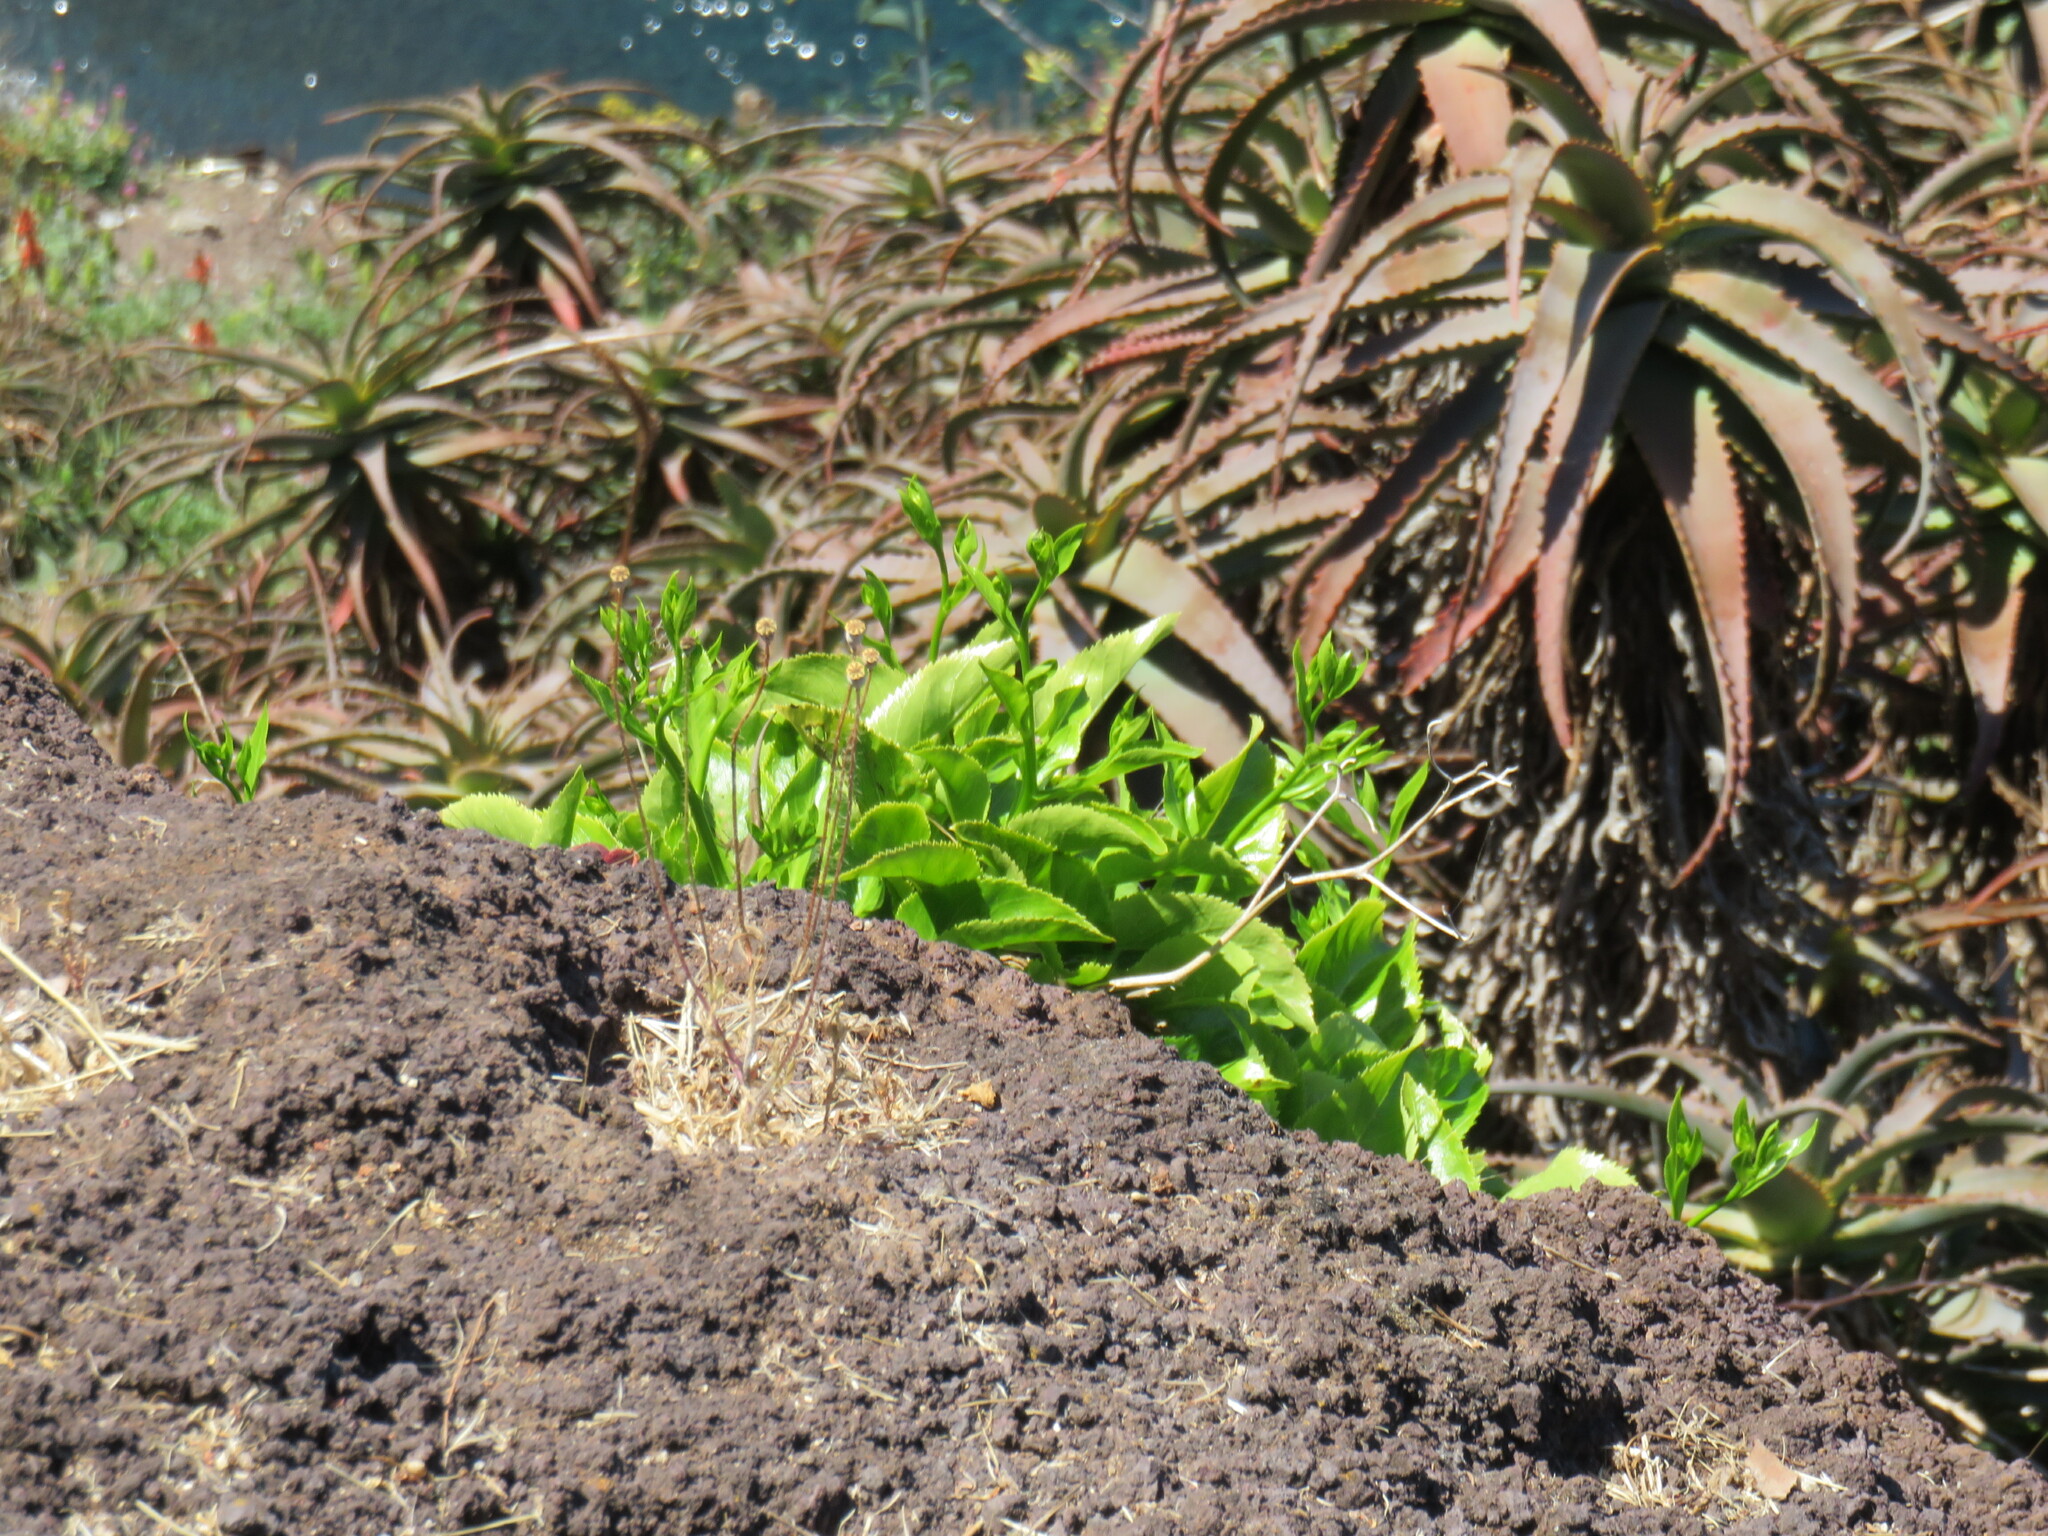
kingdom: Plantae
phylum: Tracheophyta
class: Magnoliopsida
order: Asterales
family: Campanulaceae
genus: Musschia
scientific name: Musschia aurea
